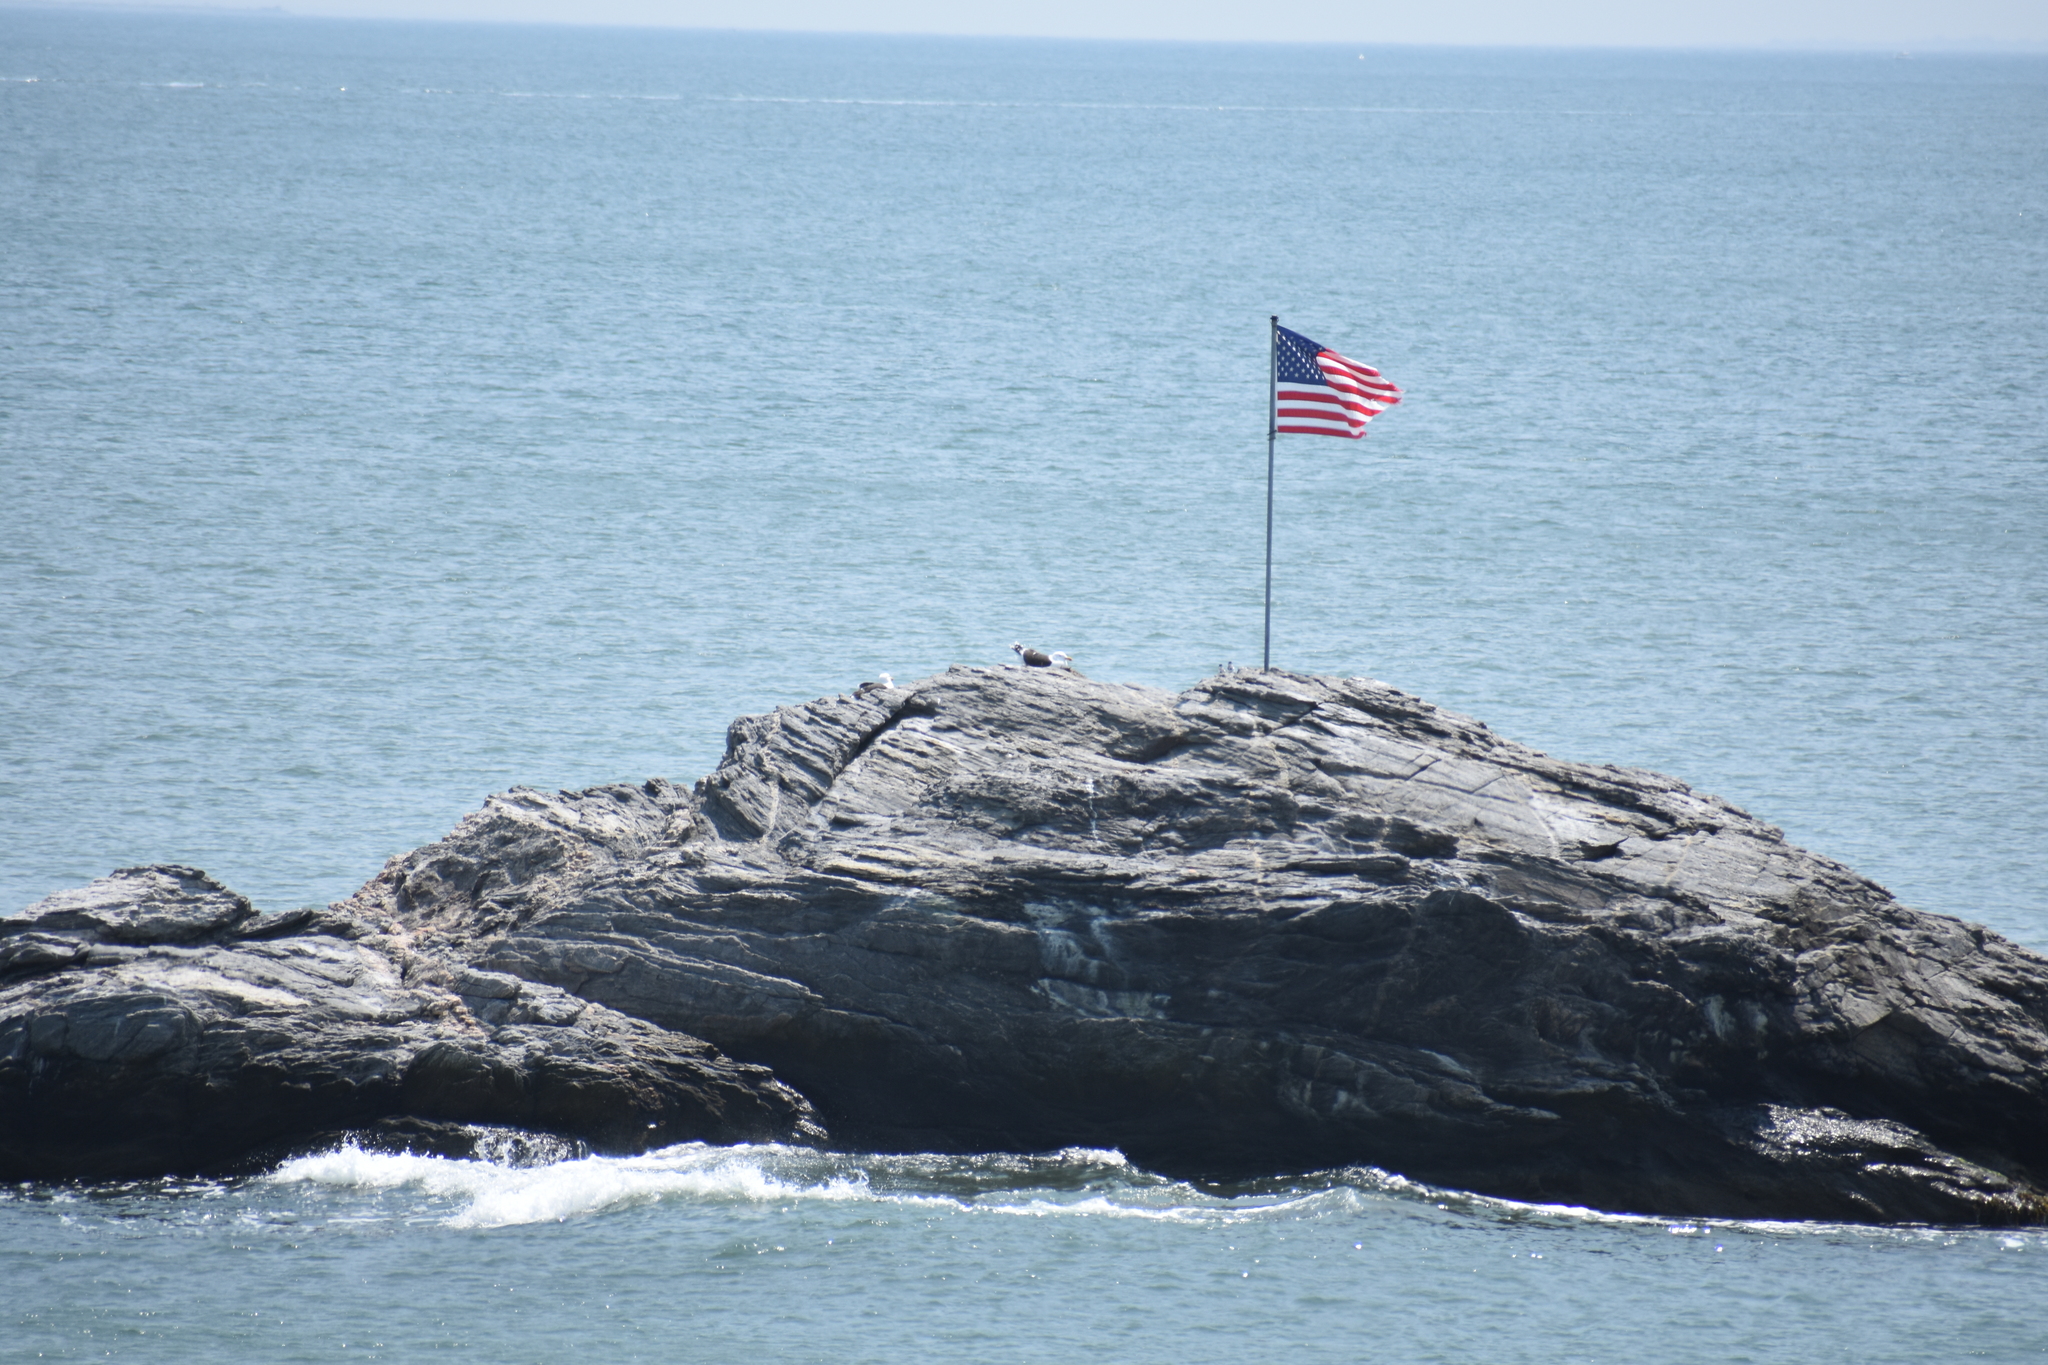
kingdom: Animalia
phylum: Chordata
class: Aves
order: Charadriiformes
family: Laridae
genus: Larus
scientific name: Larus marinus
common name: Great black-backed gull
